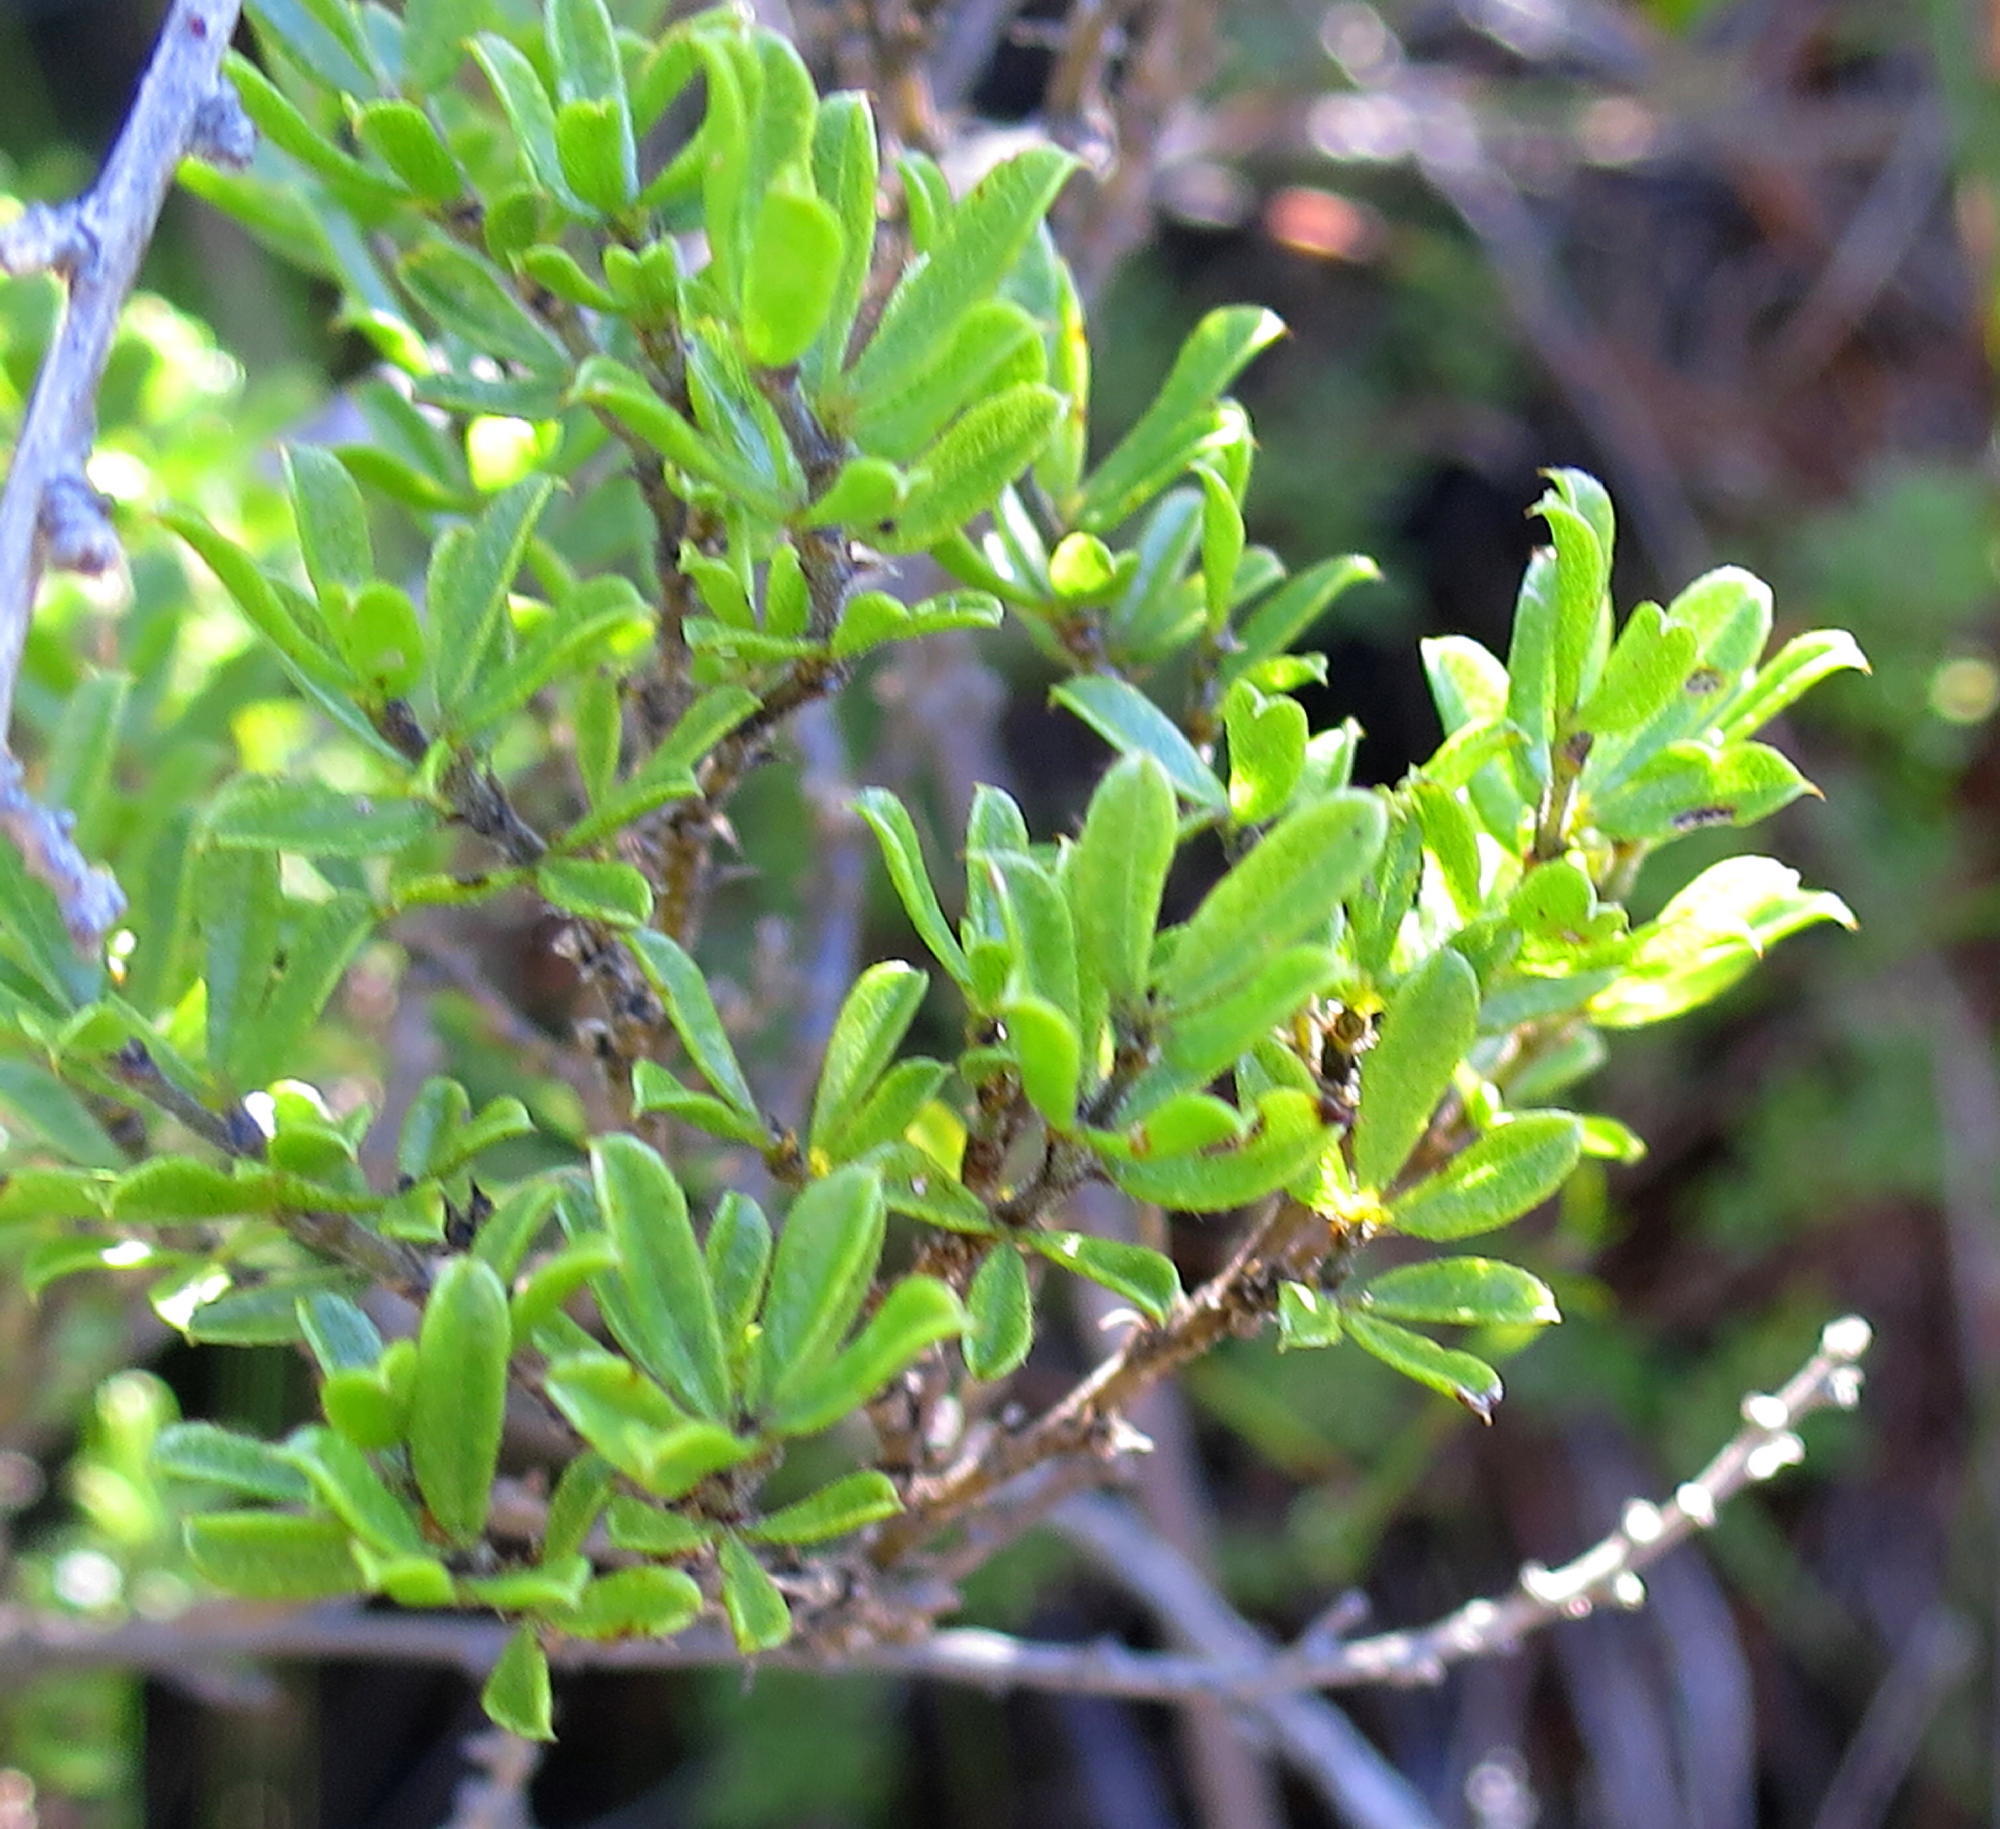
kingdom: Plantae
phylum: Tracheophyta
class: Magnoliopsida
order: Fabales
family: Fabaceae
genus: Psoralea
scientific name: Psoralea heterosepala
